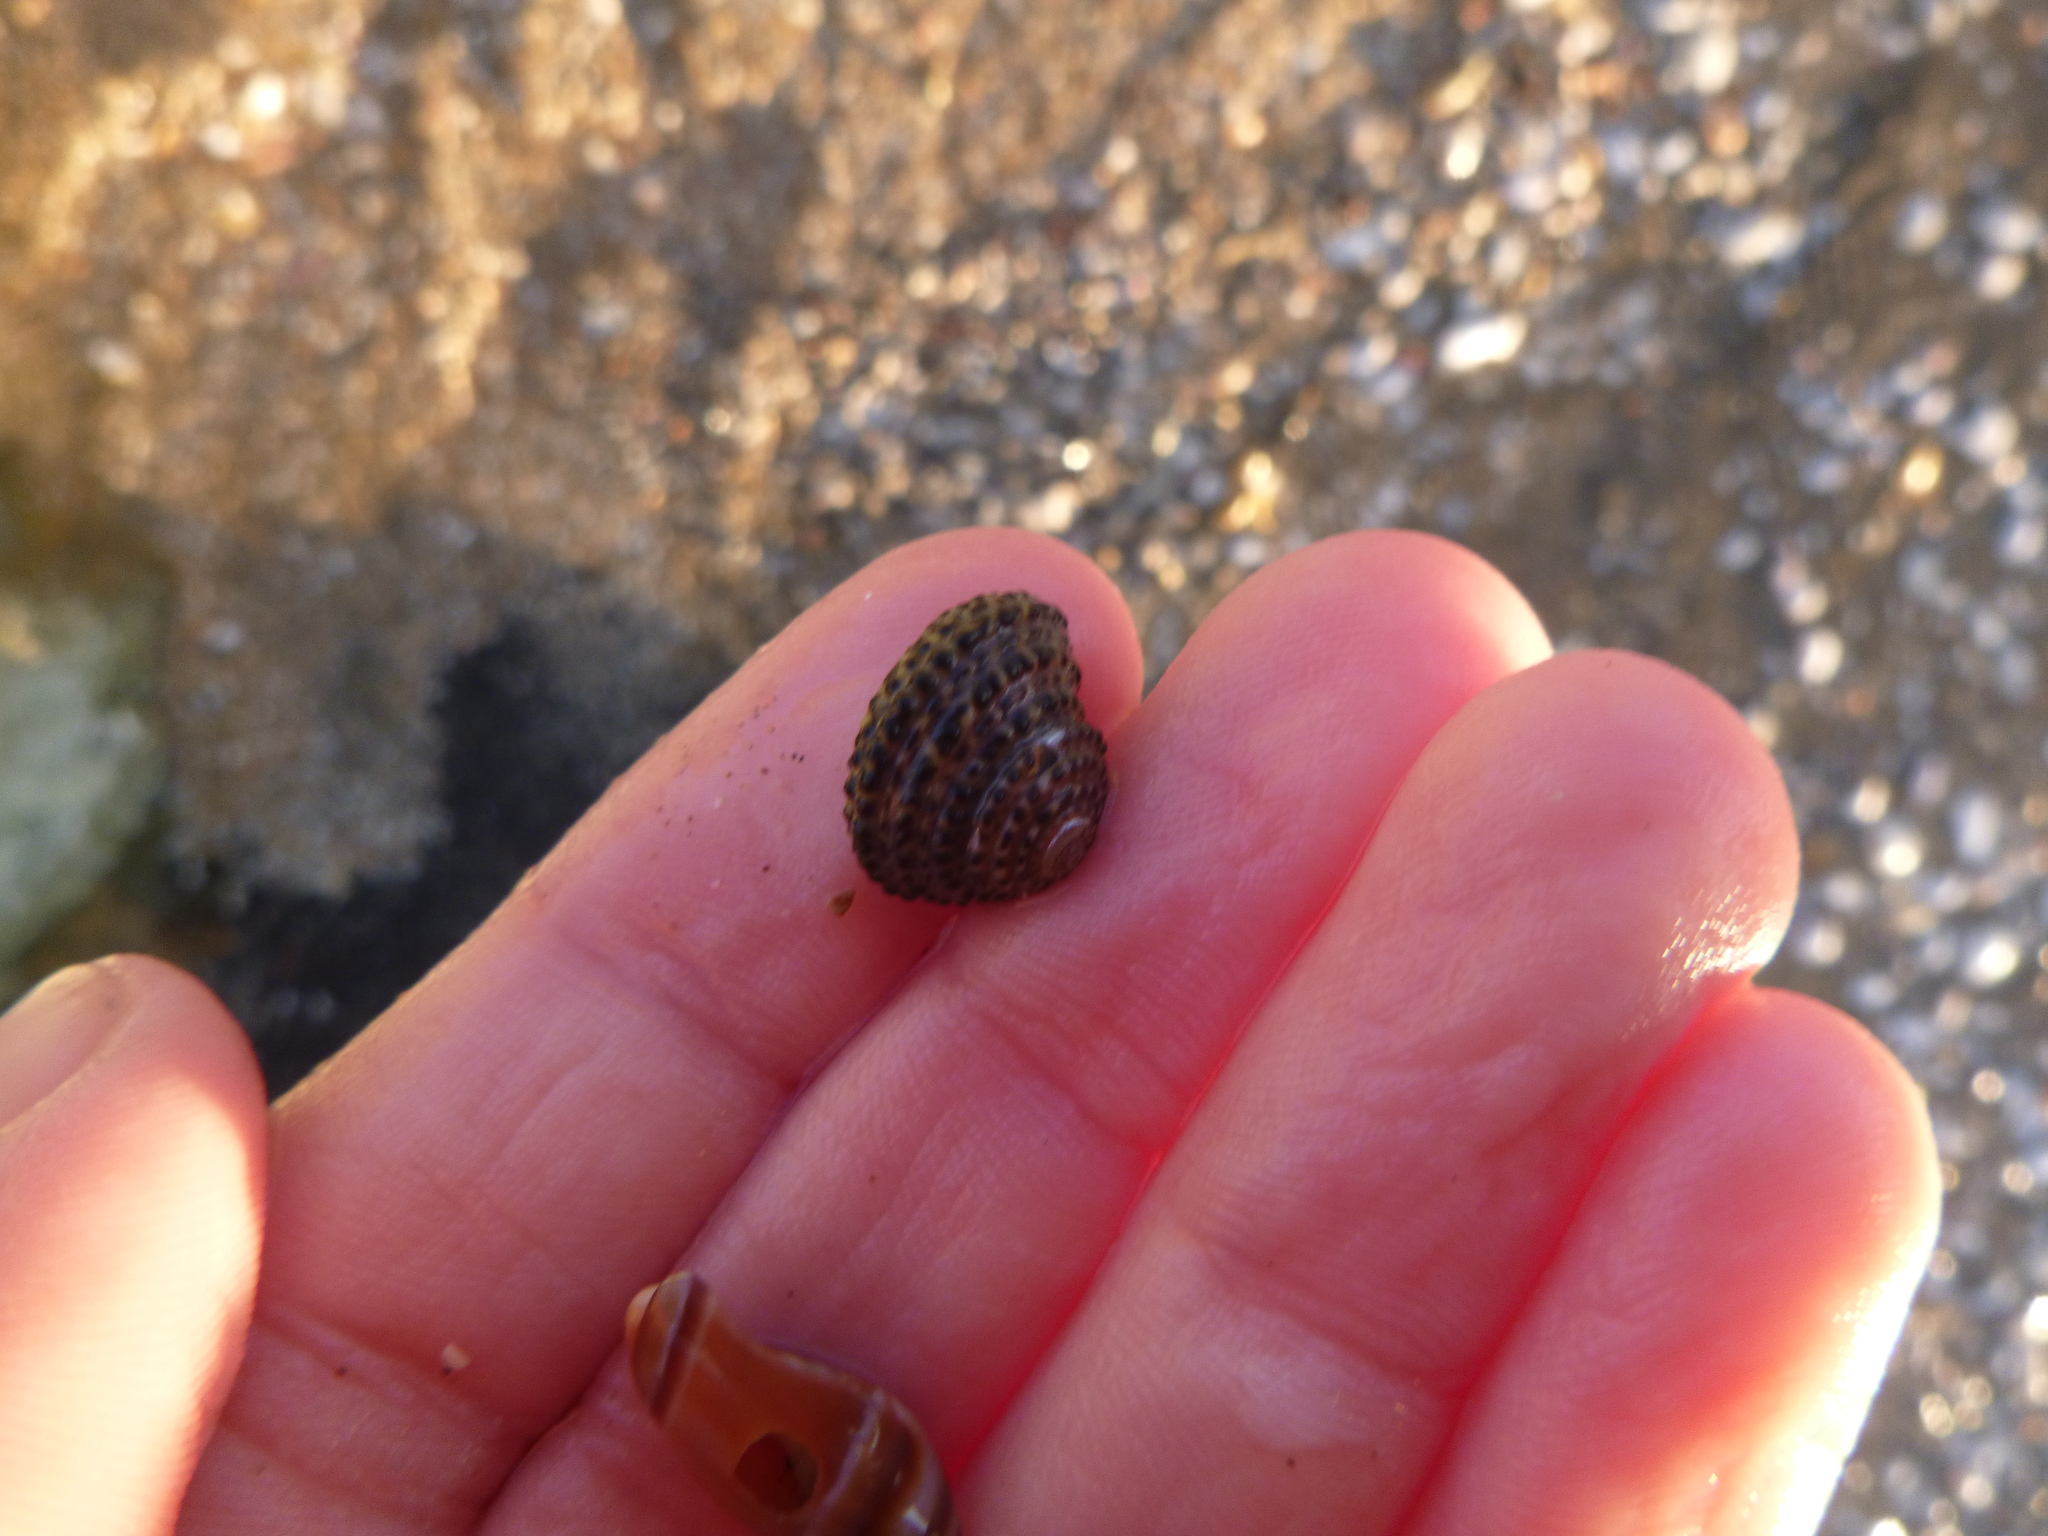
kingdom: Animalia
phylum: Mollusca
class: Gastropoda
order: Trochida
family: Trochidae
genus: Diloma
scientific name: Diloma bicanaliculatum
